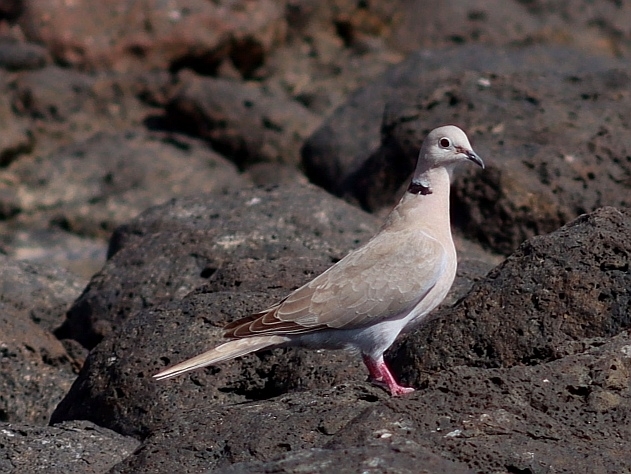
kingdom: Animalia
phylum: Chordata
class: Aves
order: Columbiformes
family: Columbidae
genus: Streptopelia
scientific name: Streptopelia decaocto
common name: Eurasian collared dove
